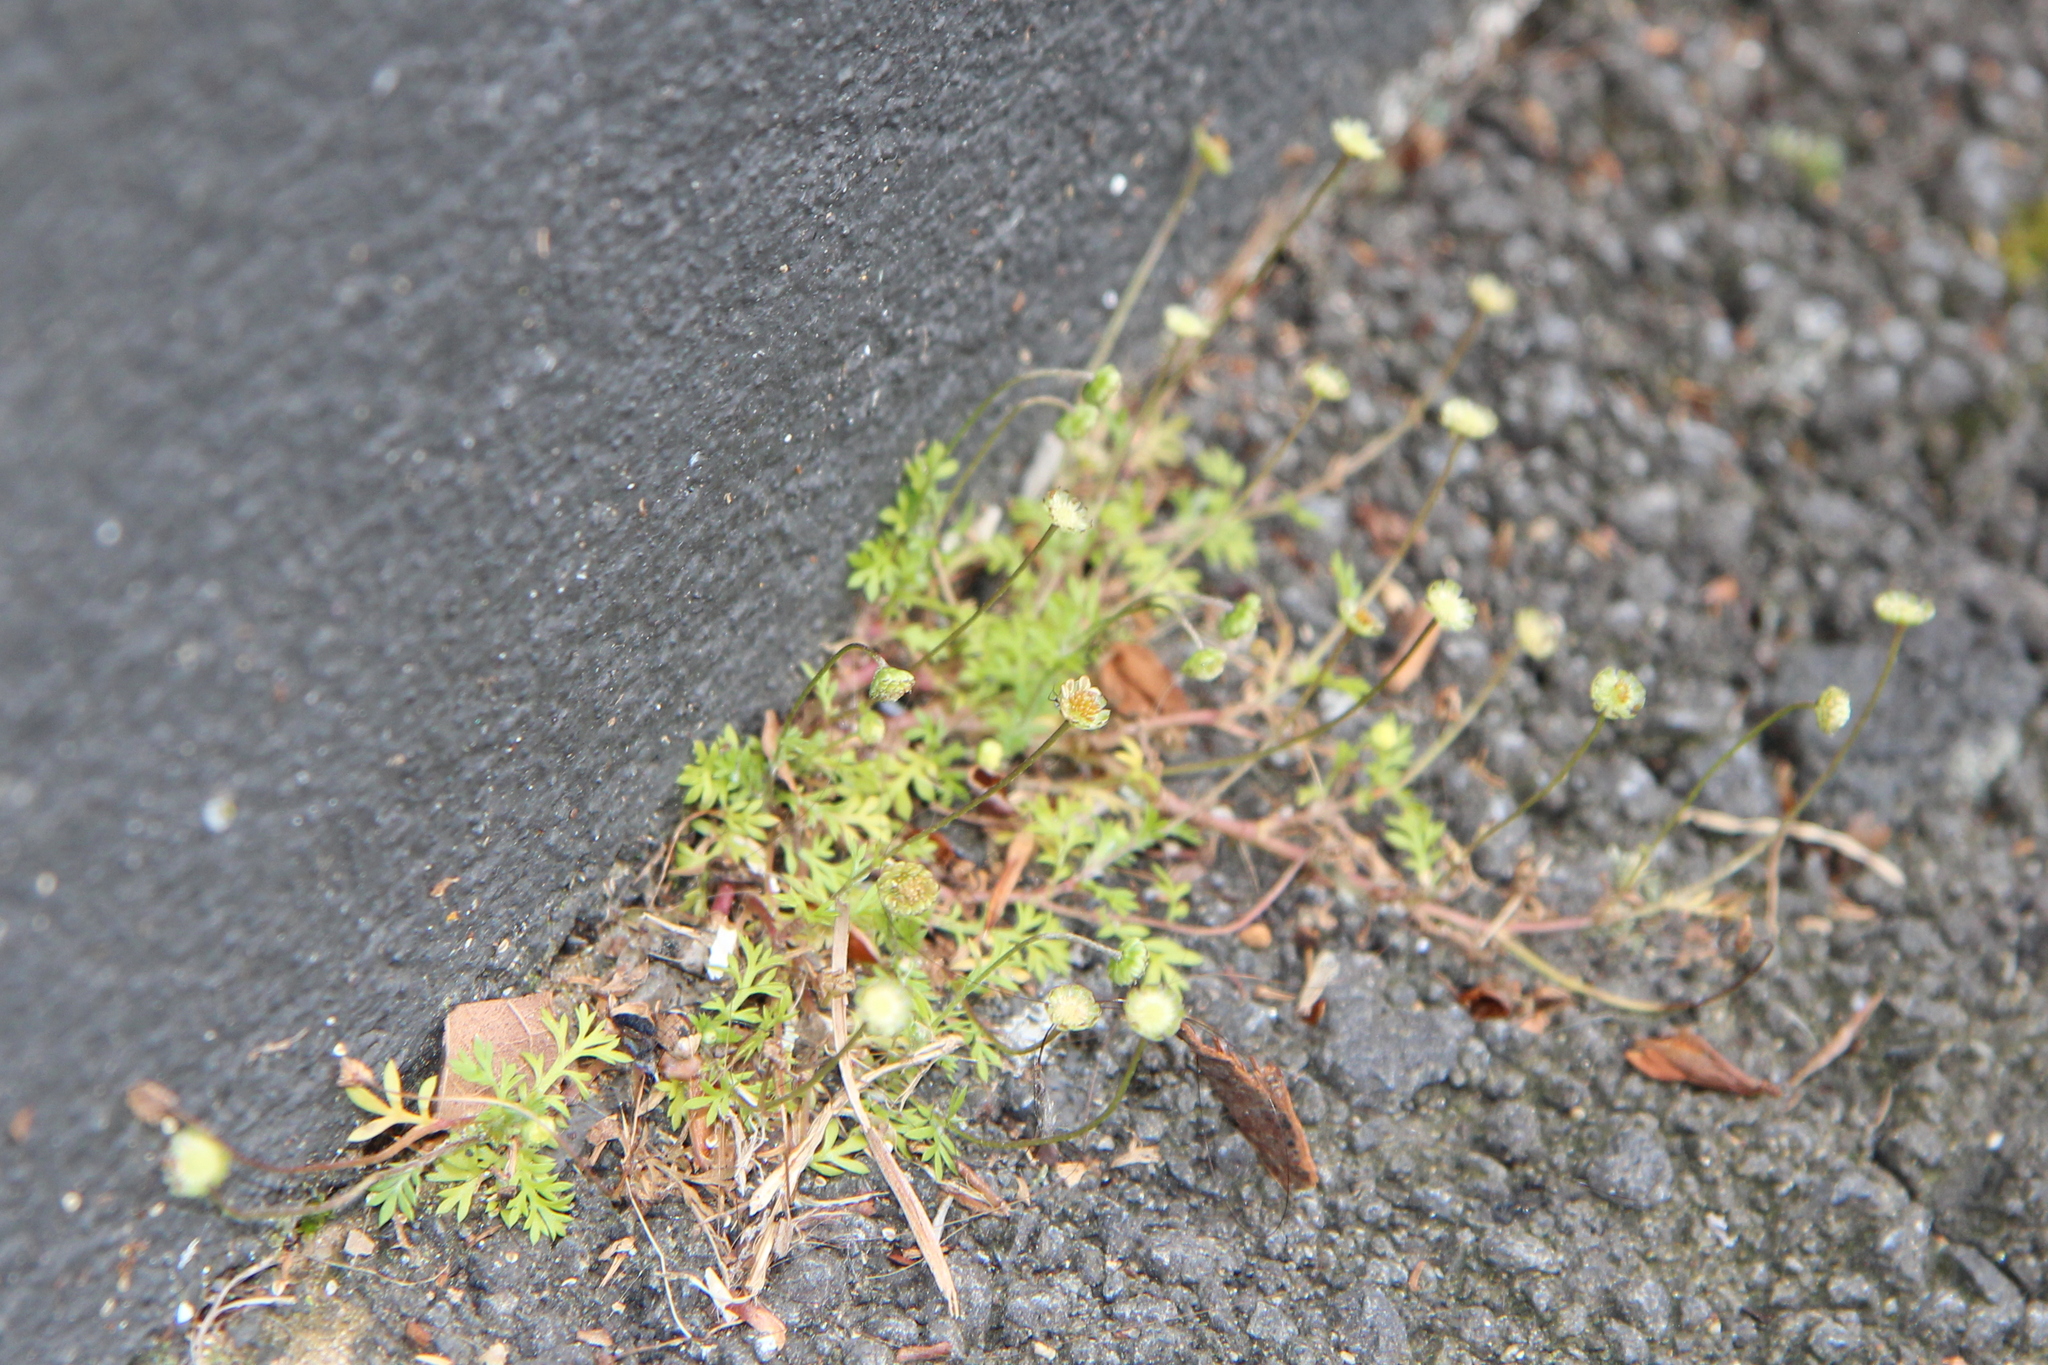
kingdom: Plantae
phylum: Tracheophyta
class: Magnoliopsida
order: Asterales
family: Asteraceae
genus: Cotula
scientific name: Cotula australis
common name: Australian waterbuttons
